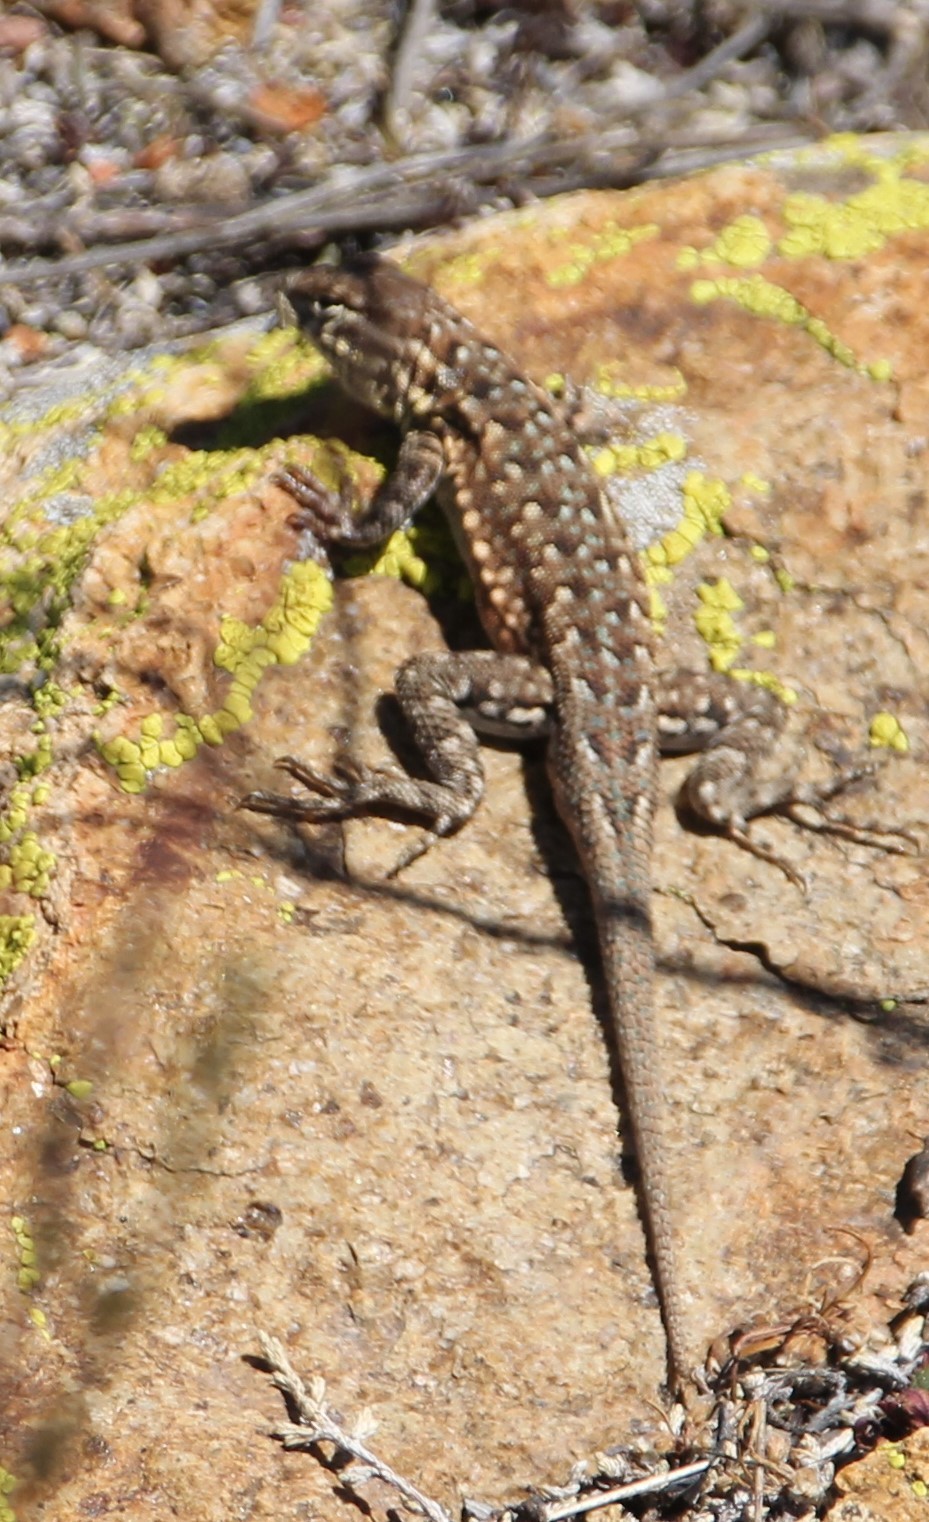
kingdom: Animalia
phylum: Chordata
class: Squamata
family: Phrynosomatidae
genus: Uta
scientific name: Uta stansburiana
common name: Side-blotched lizard
